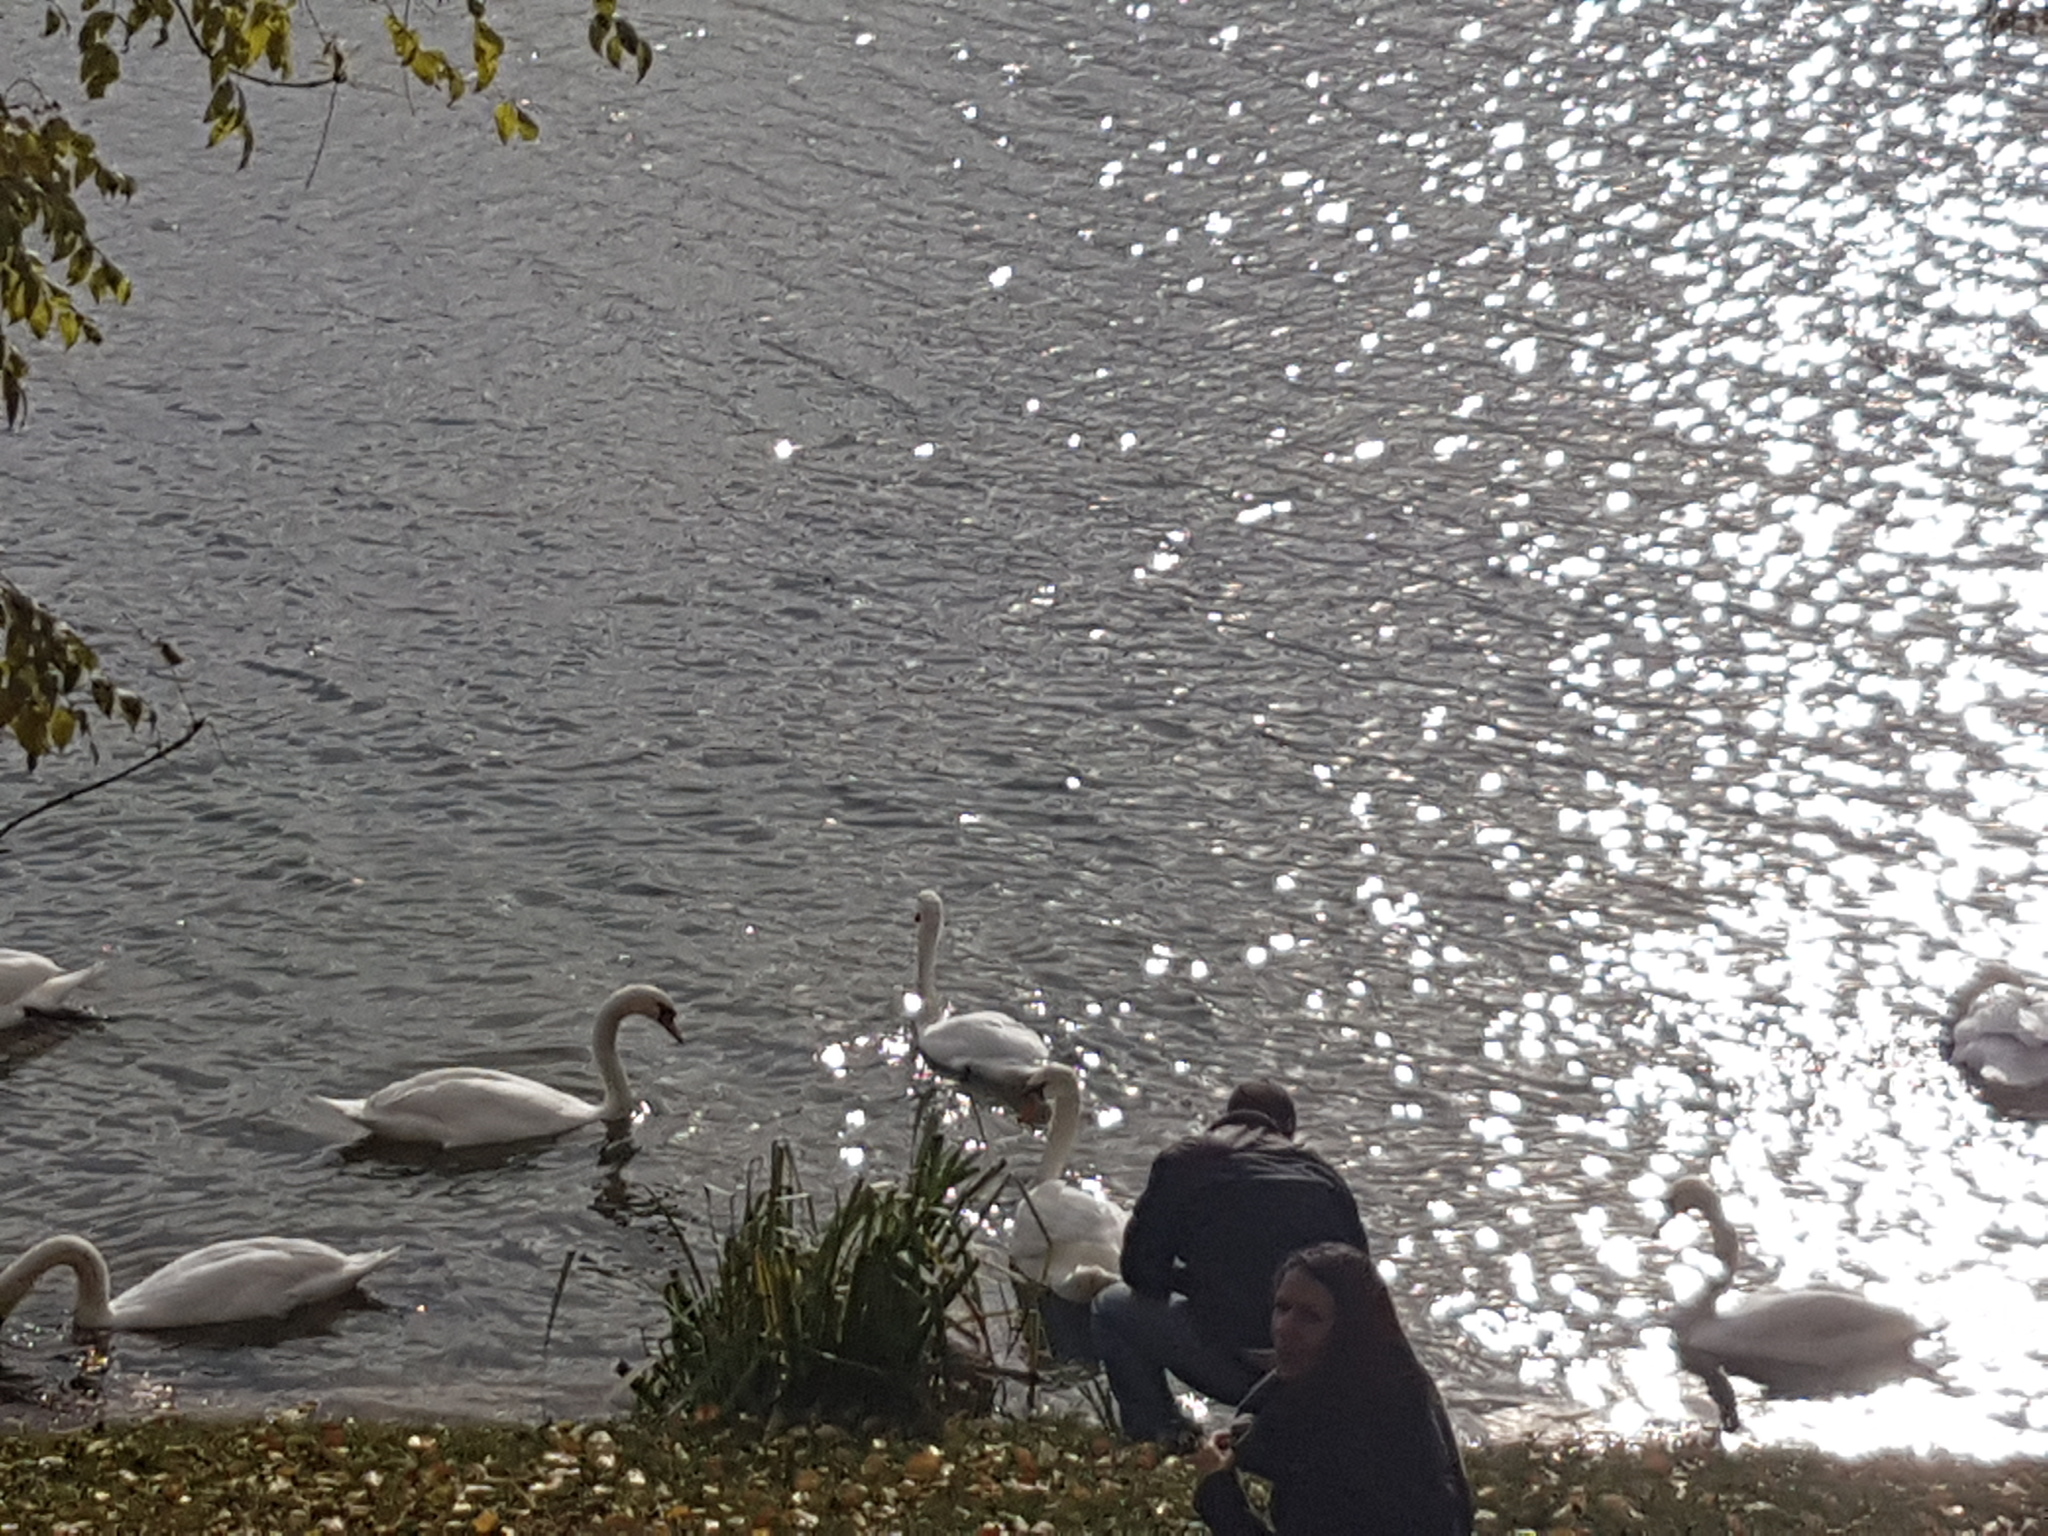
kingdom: Animalia
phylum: Chordata
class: Aves
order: Anseriformes
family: Anatidae
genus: Cygnus
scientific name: Cygnus olor
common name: Mute swan
